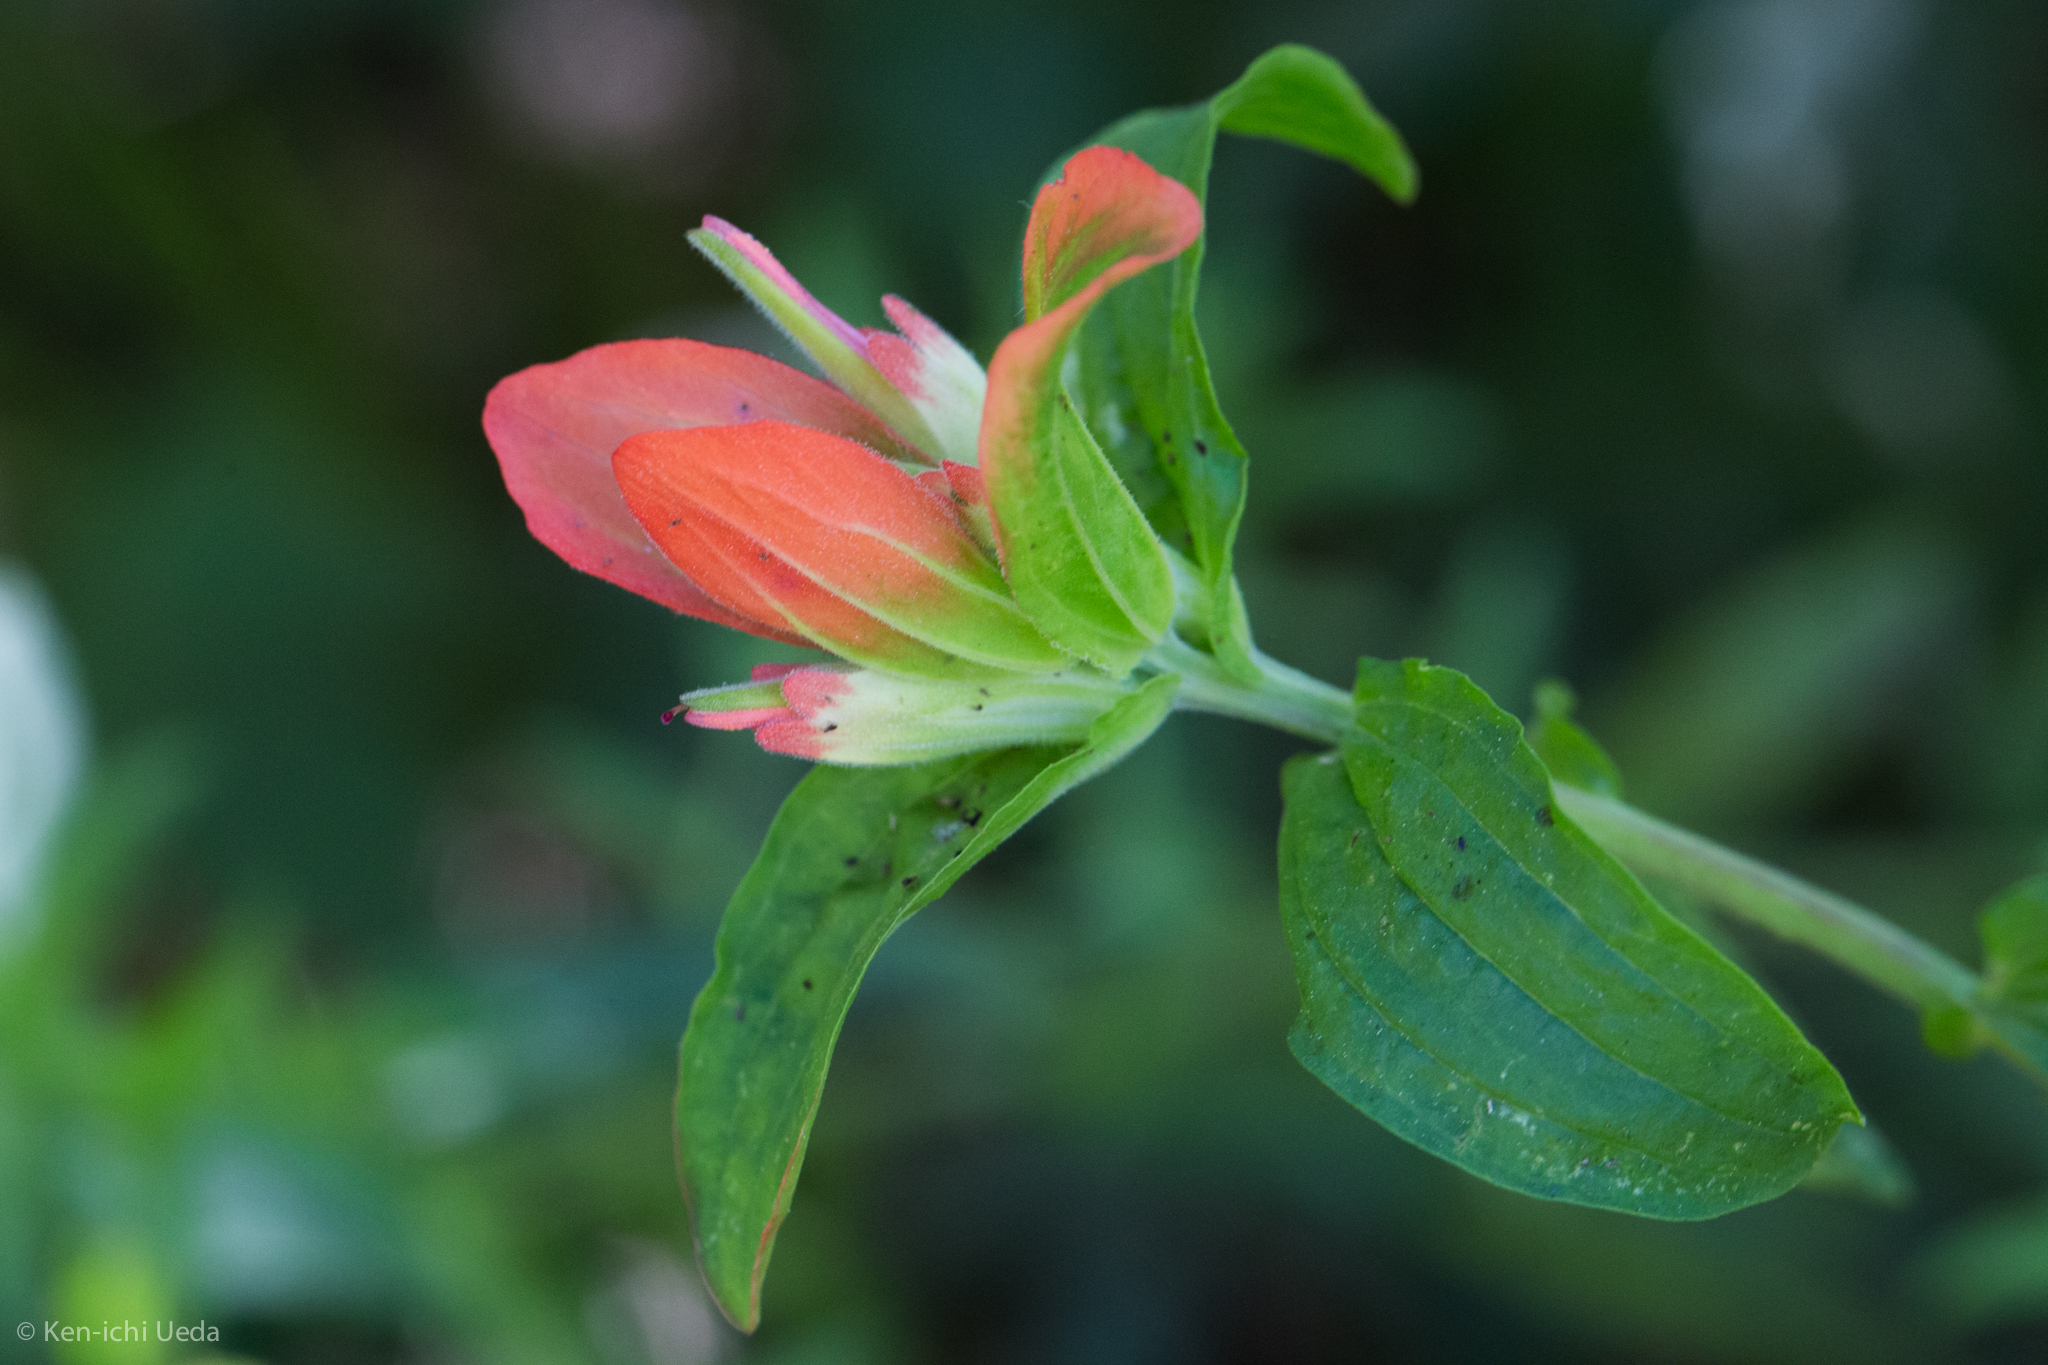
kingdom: Plantae
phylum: Tracheophyta
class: Magnoliopsida
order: Lamiales
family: Orobanchaceae
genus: Castilleja
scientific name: Castilleja nelsonii
